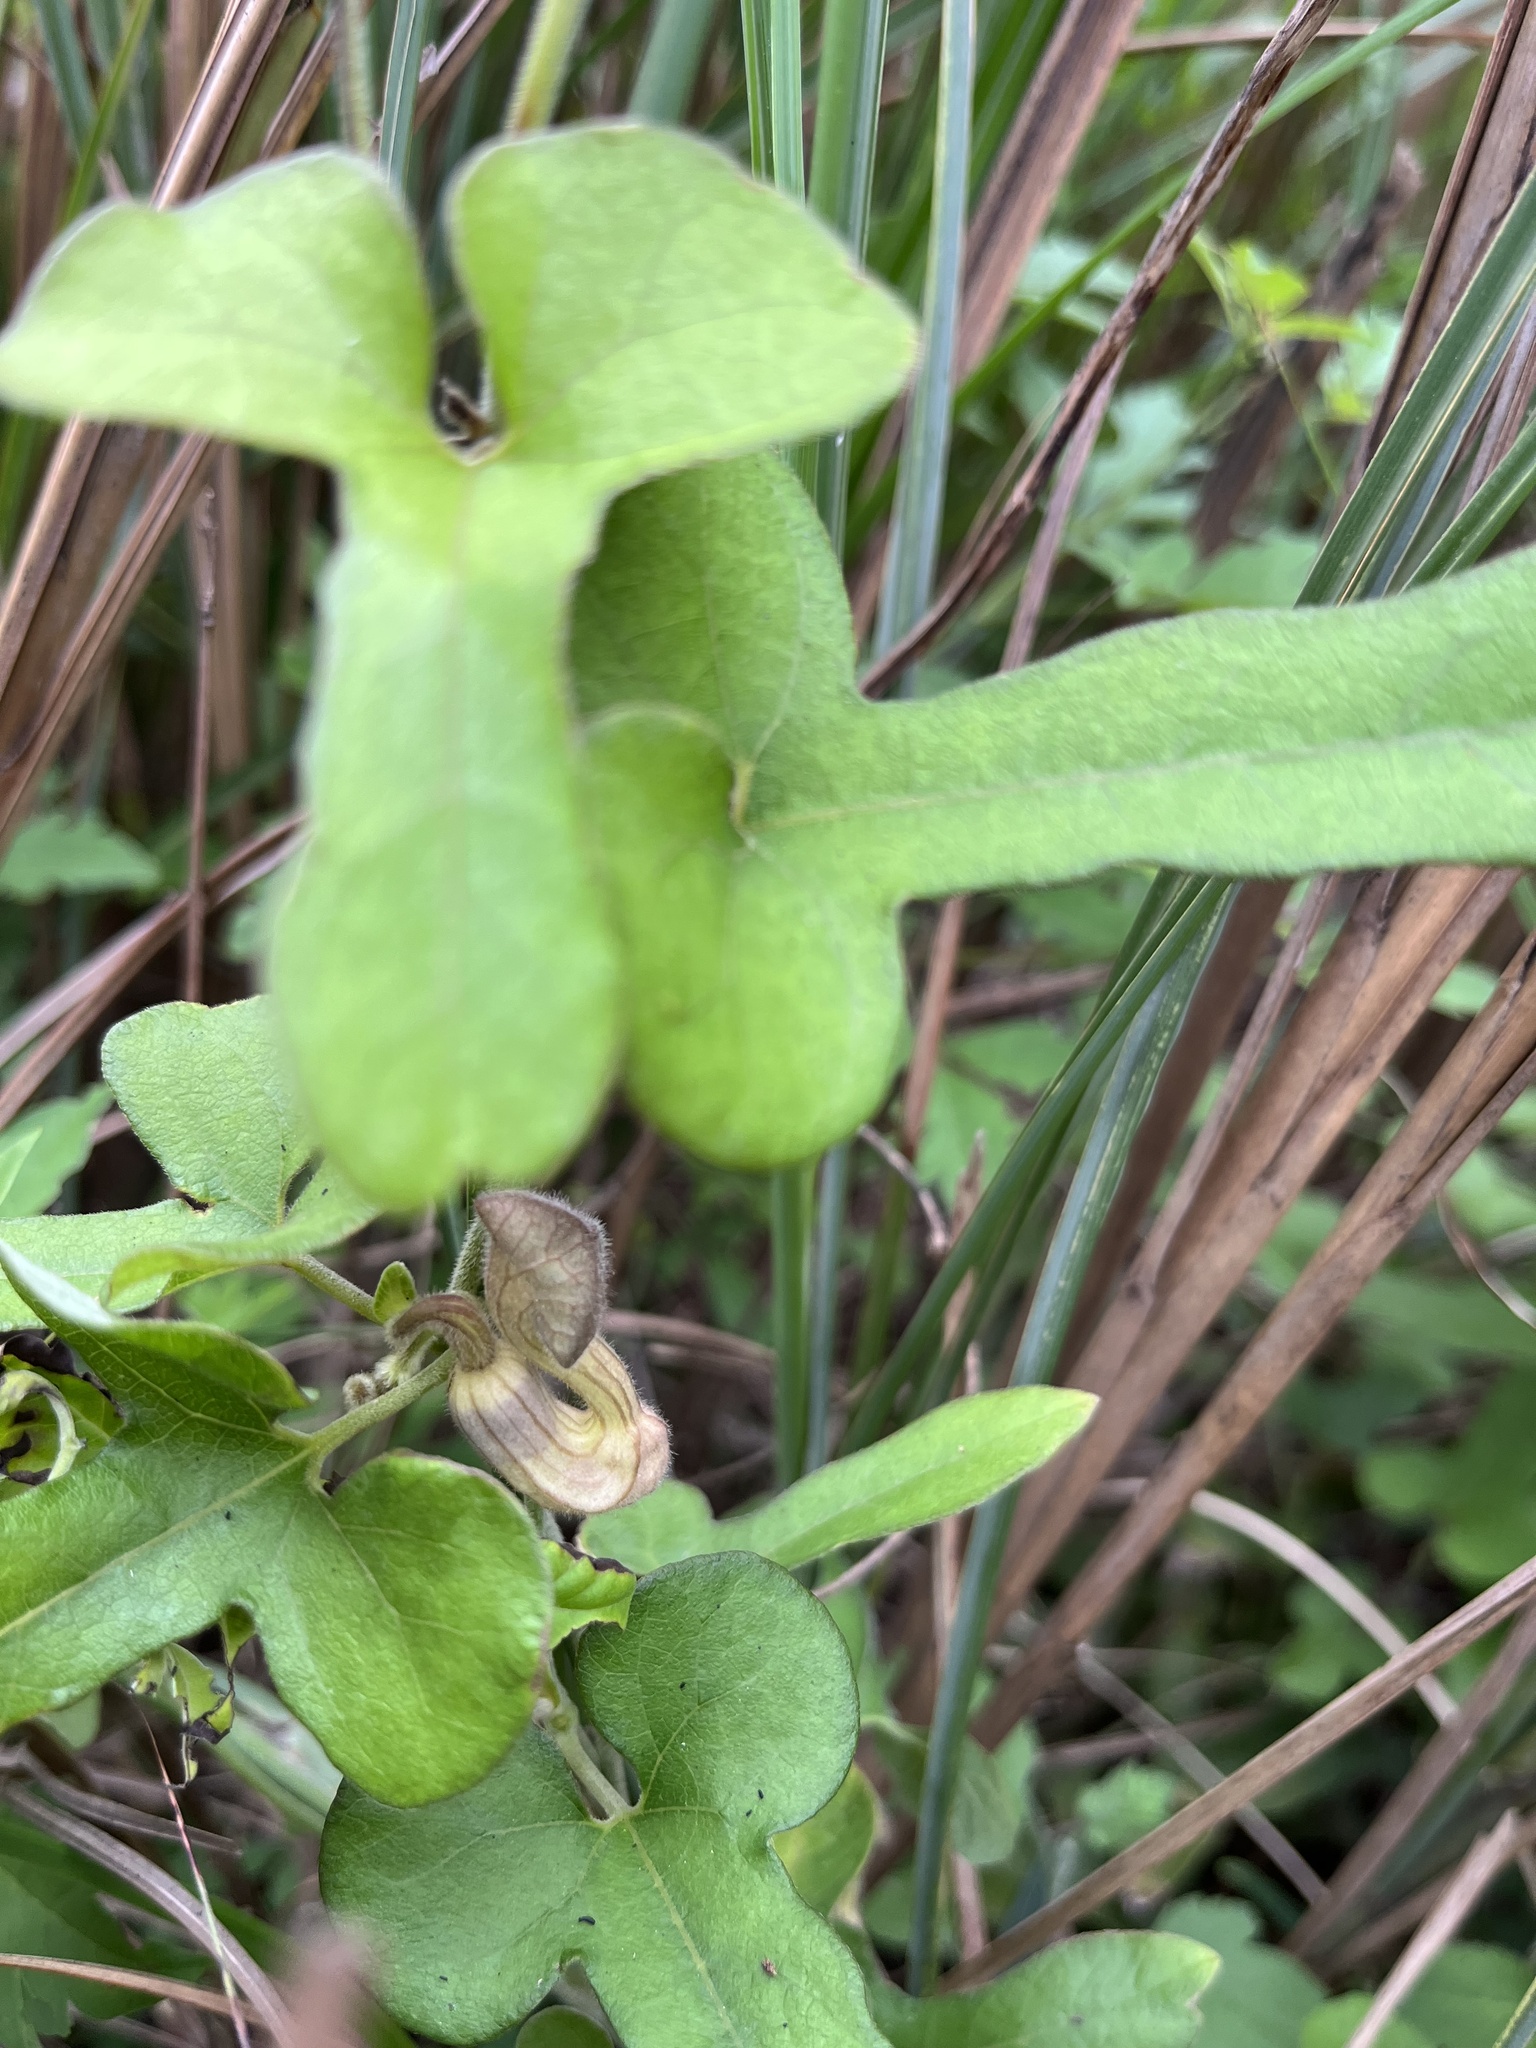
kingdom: Plantae
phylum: Tracheophyta
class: Magnoliopsida
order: Piperales
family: Aristolochiaceae
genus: Isotrema
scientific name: Isotrema shimadae
